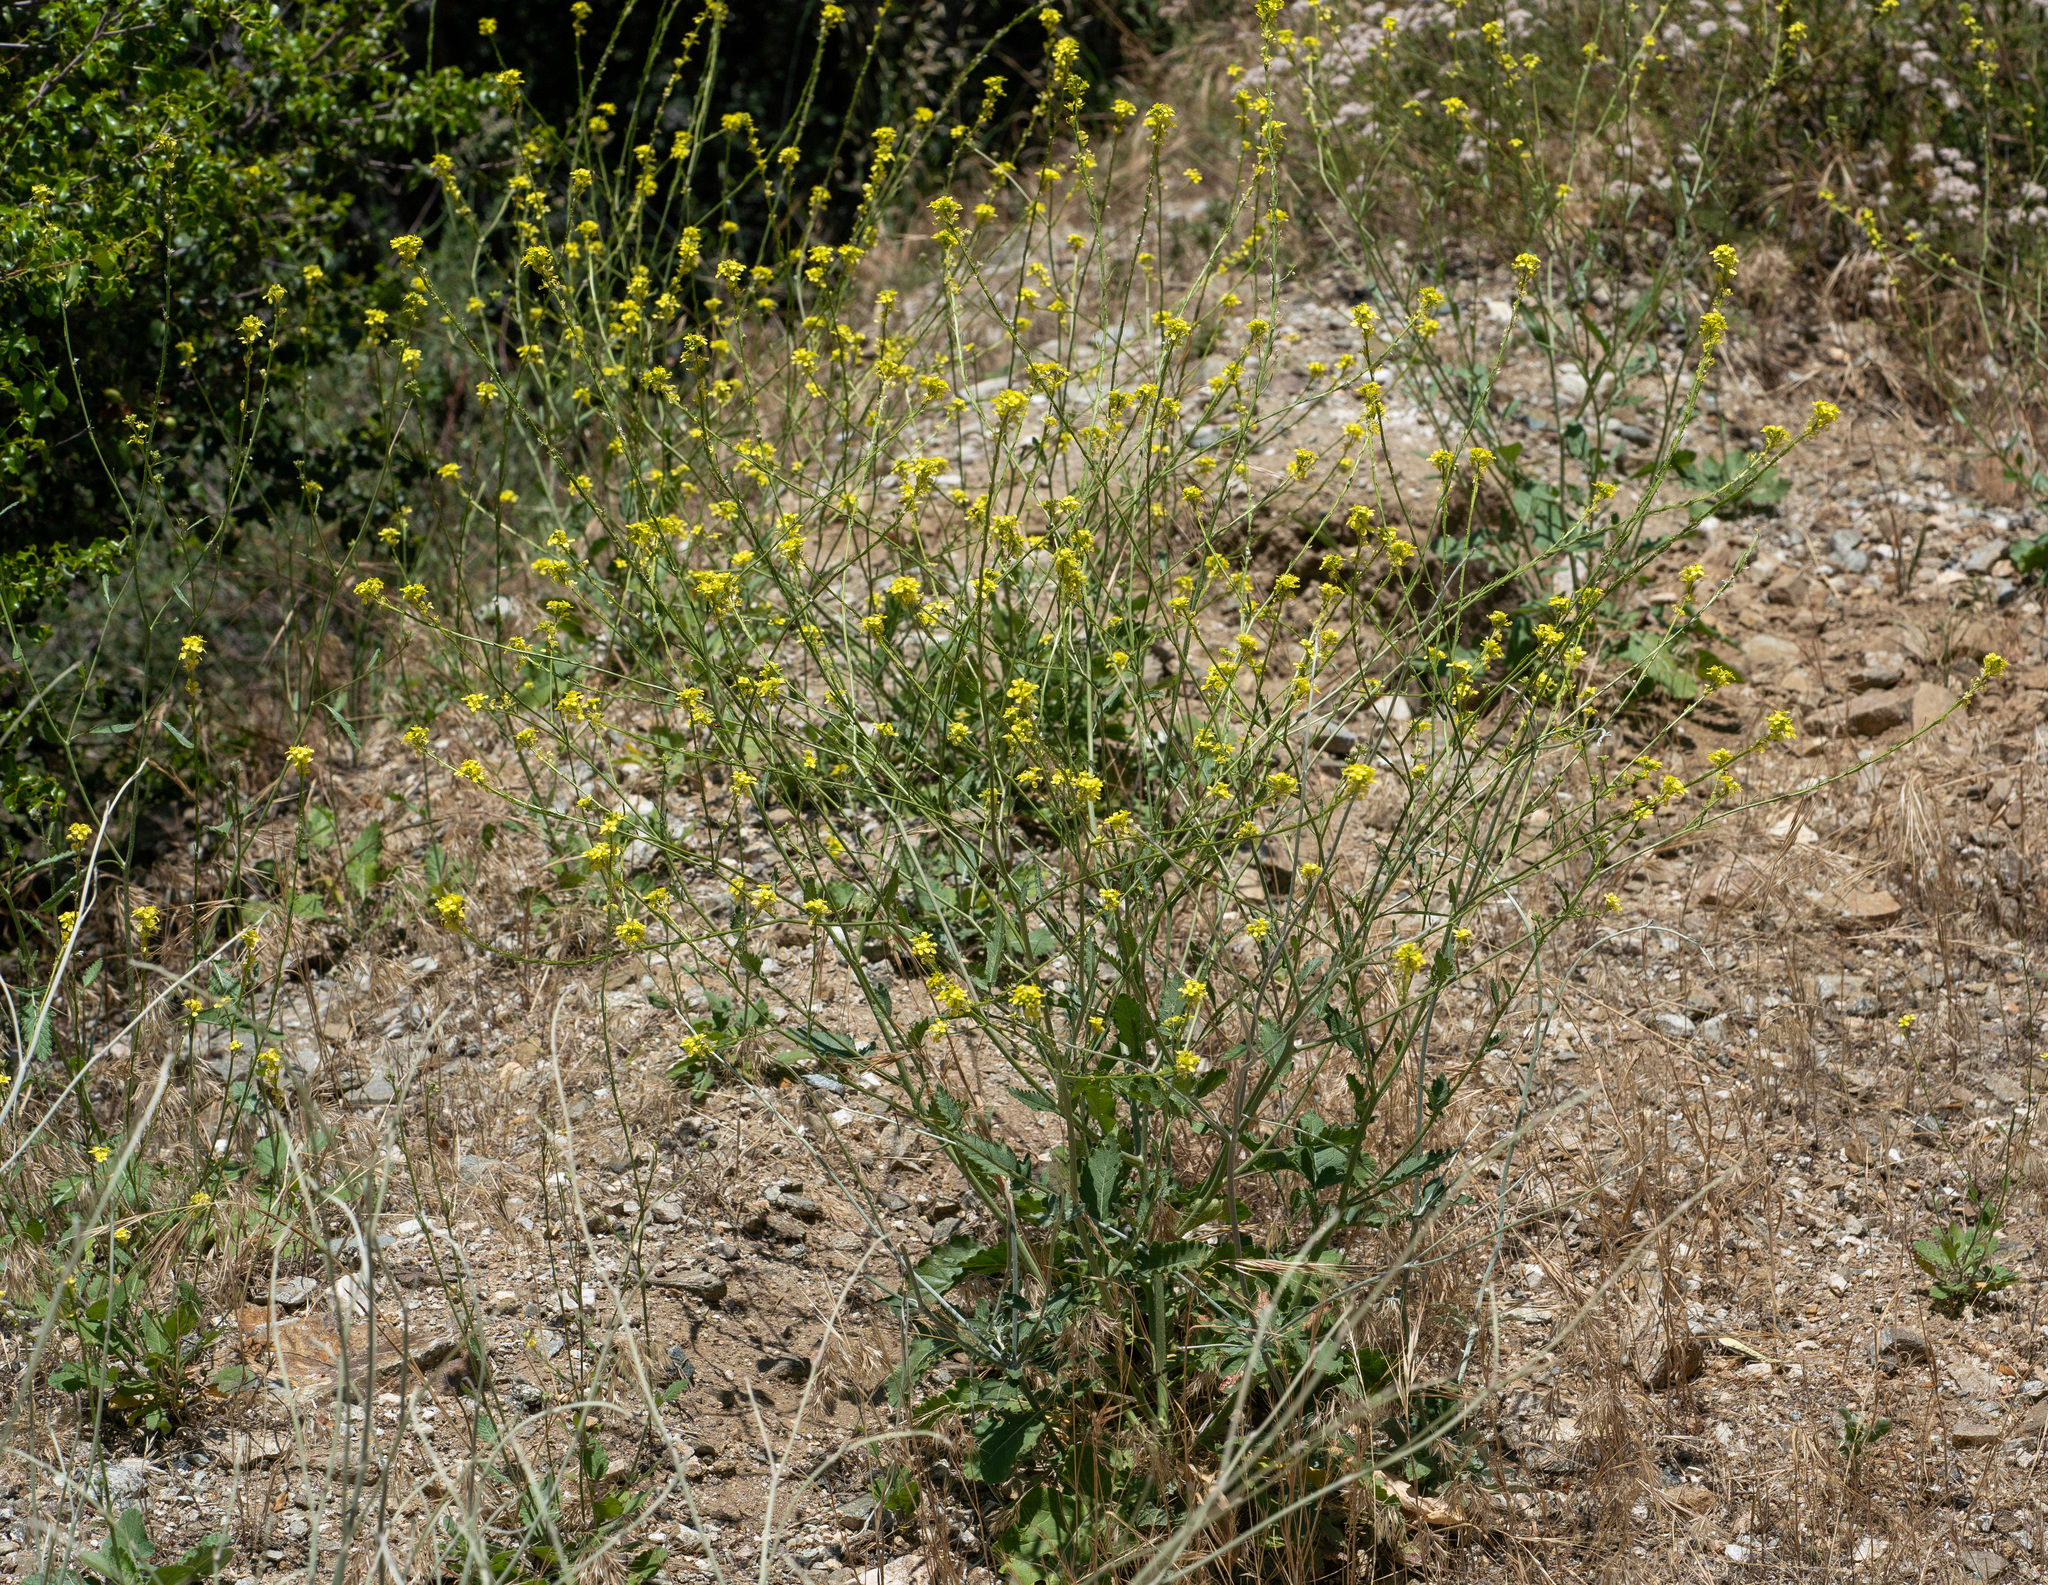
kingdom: Plantae
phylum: Tracheophyta
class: Magnoliopsida
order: Brassicales
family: Brassicaceae
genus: Hirschfeldia
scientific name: Hirschfeldia incana
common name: Hoary mustard
